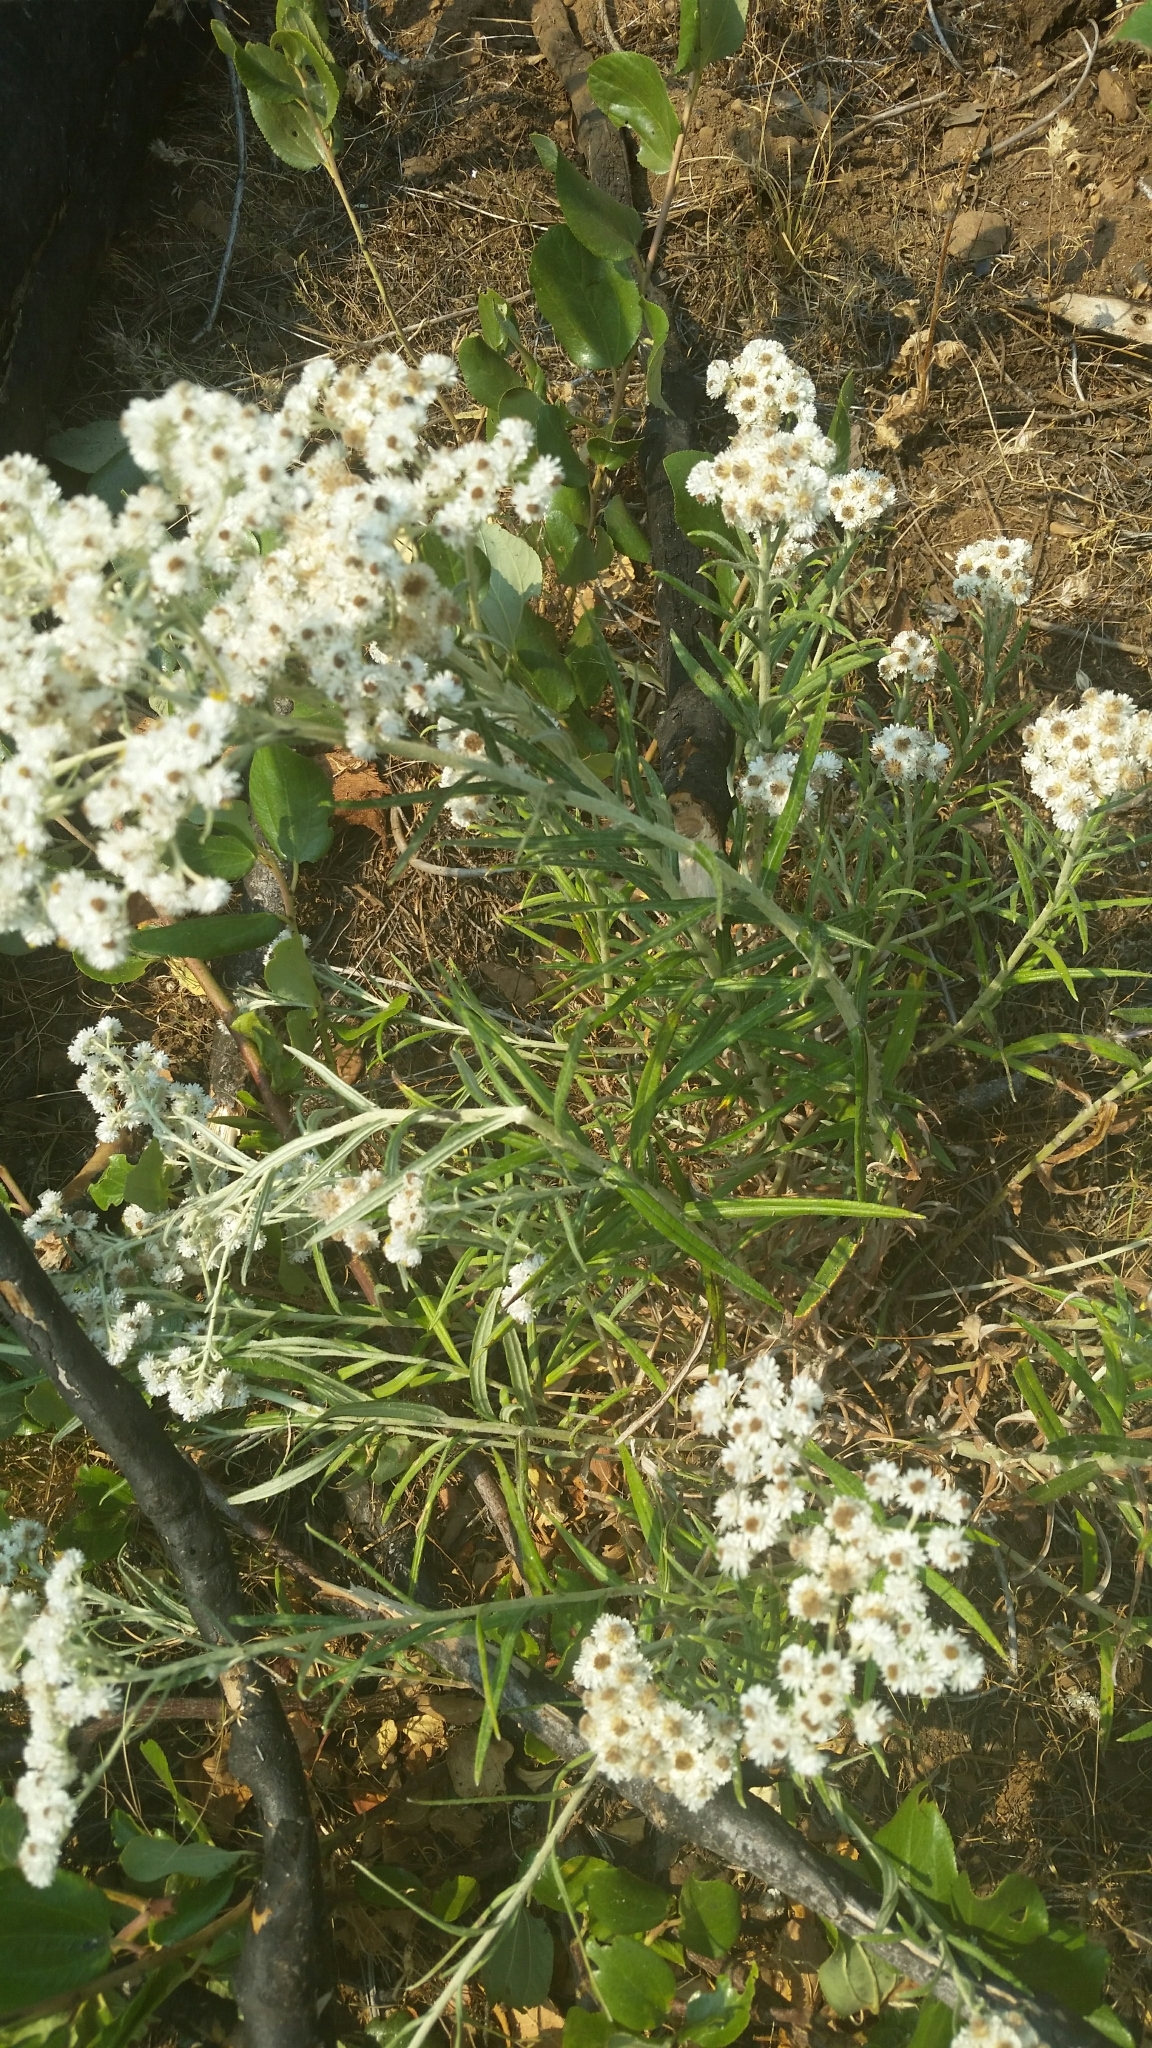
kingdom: Plantae
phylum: Tracheophyta
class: Magnoliopsida
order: Asterales
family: Asteraceae
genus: Anaphalis
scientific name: Anaphalis margaritacea
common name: Pearly everlasting
